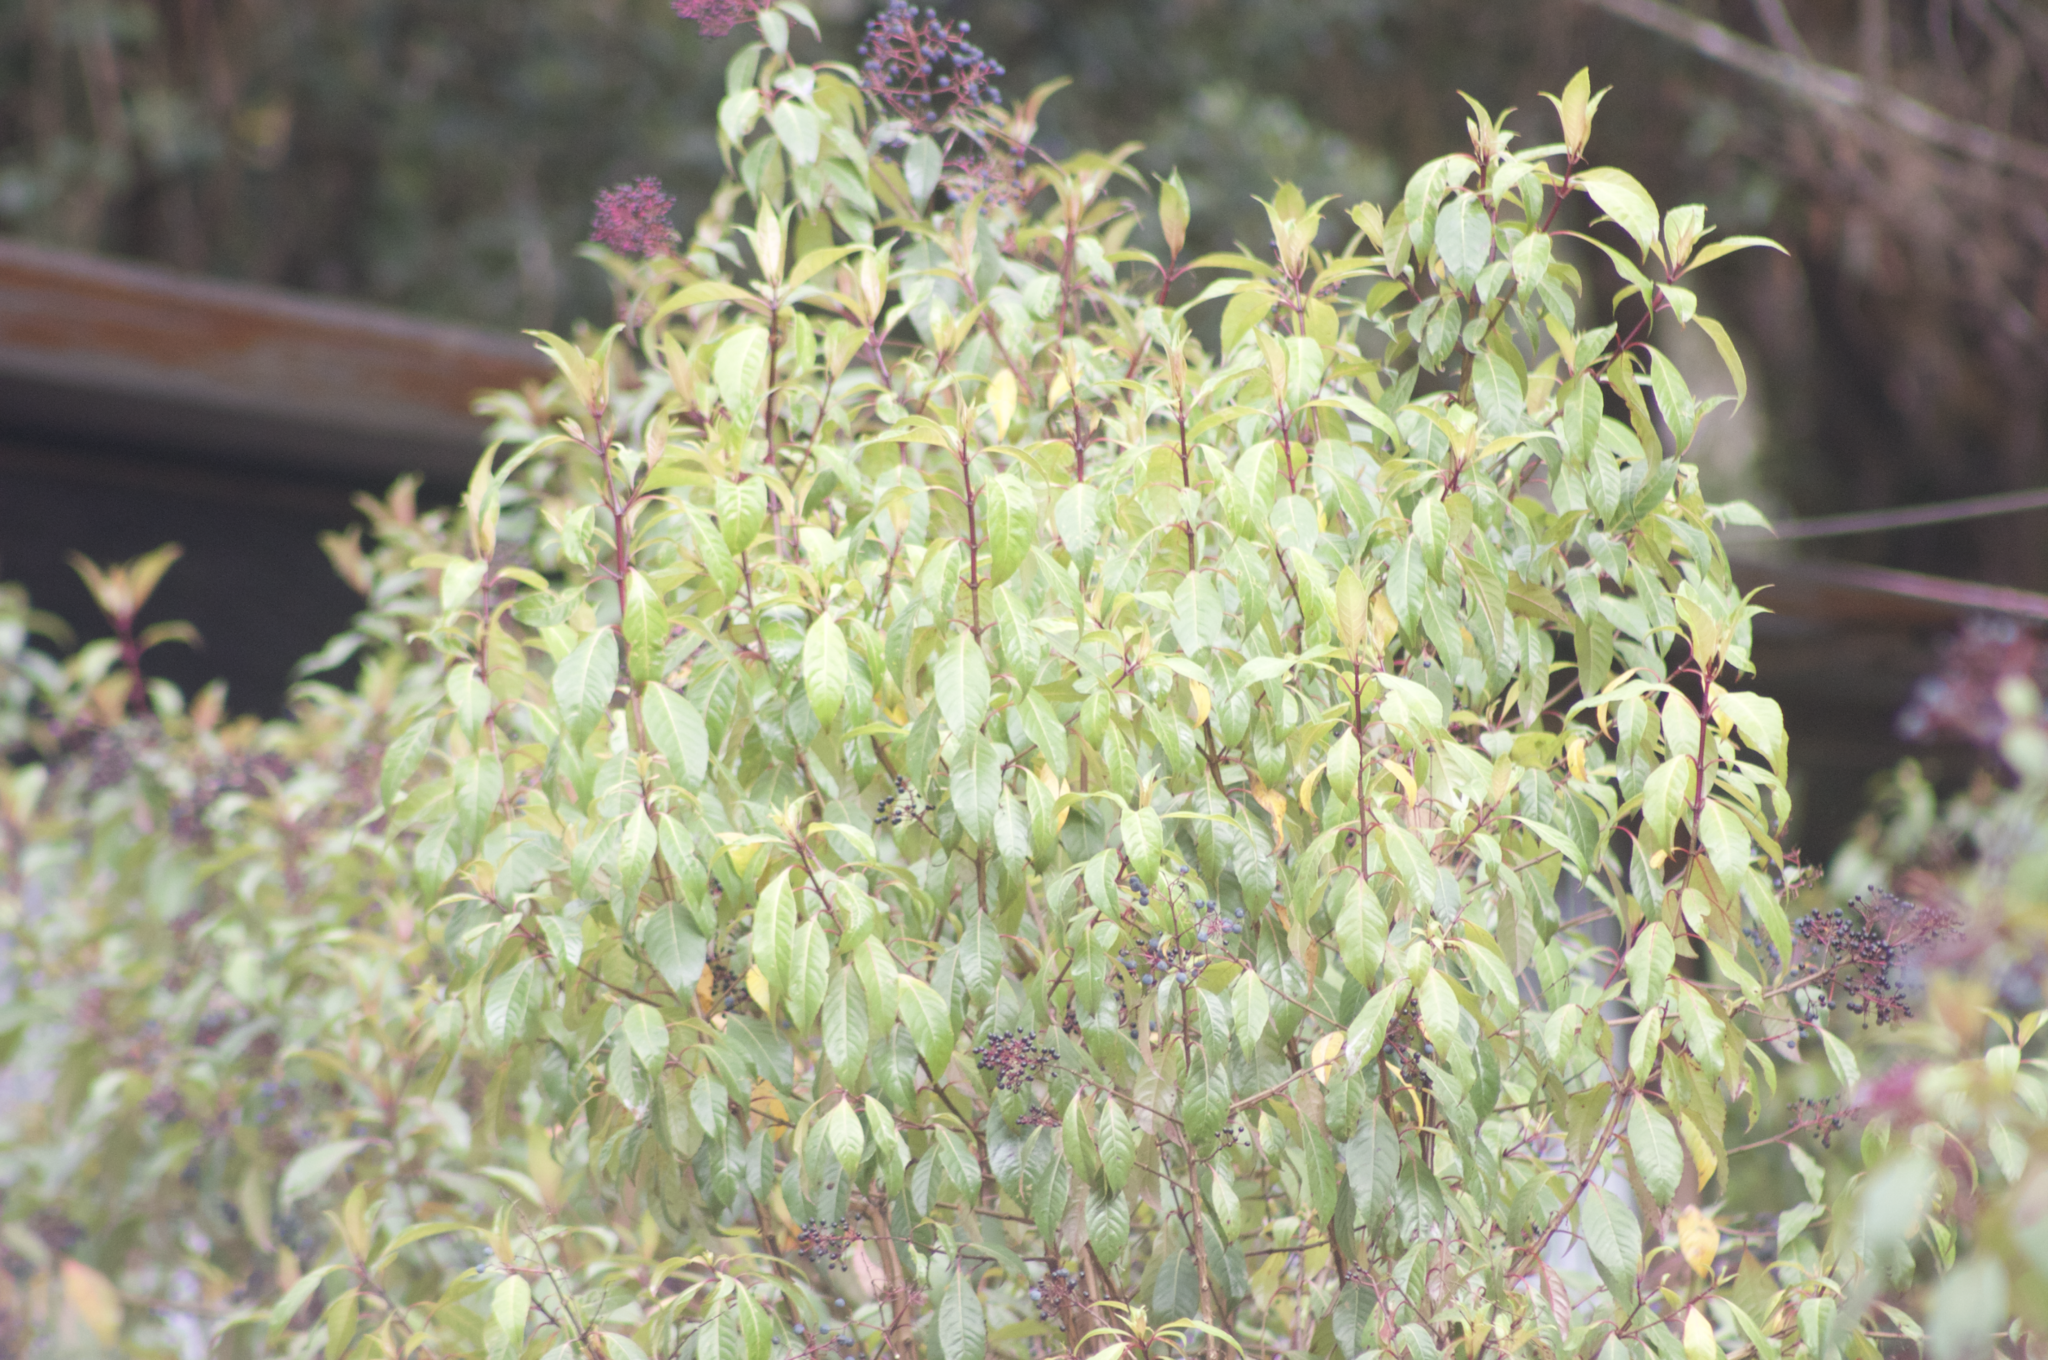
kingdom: Plantae
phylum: Tracheophyta
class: Magnoliopsida
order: Myrtales
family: Onagraceae
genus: Fuchsia
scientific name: Fuchsia paniculata
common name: Shrubby fuchsia
